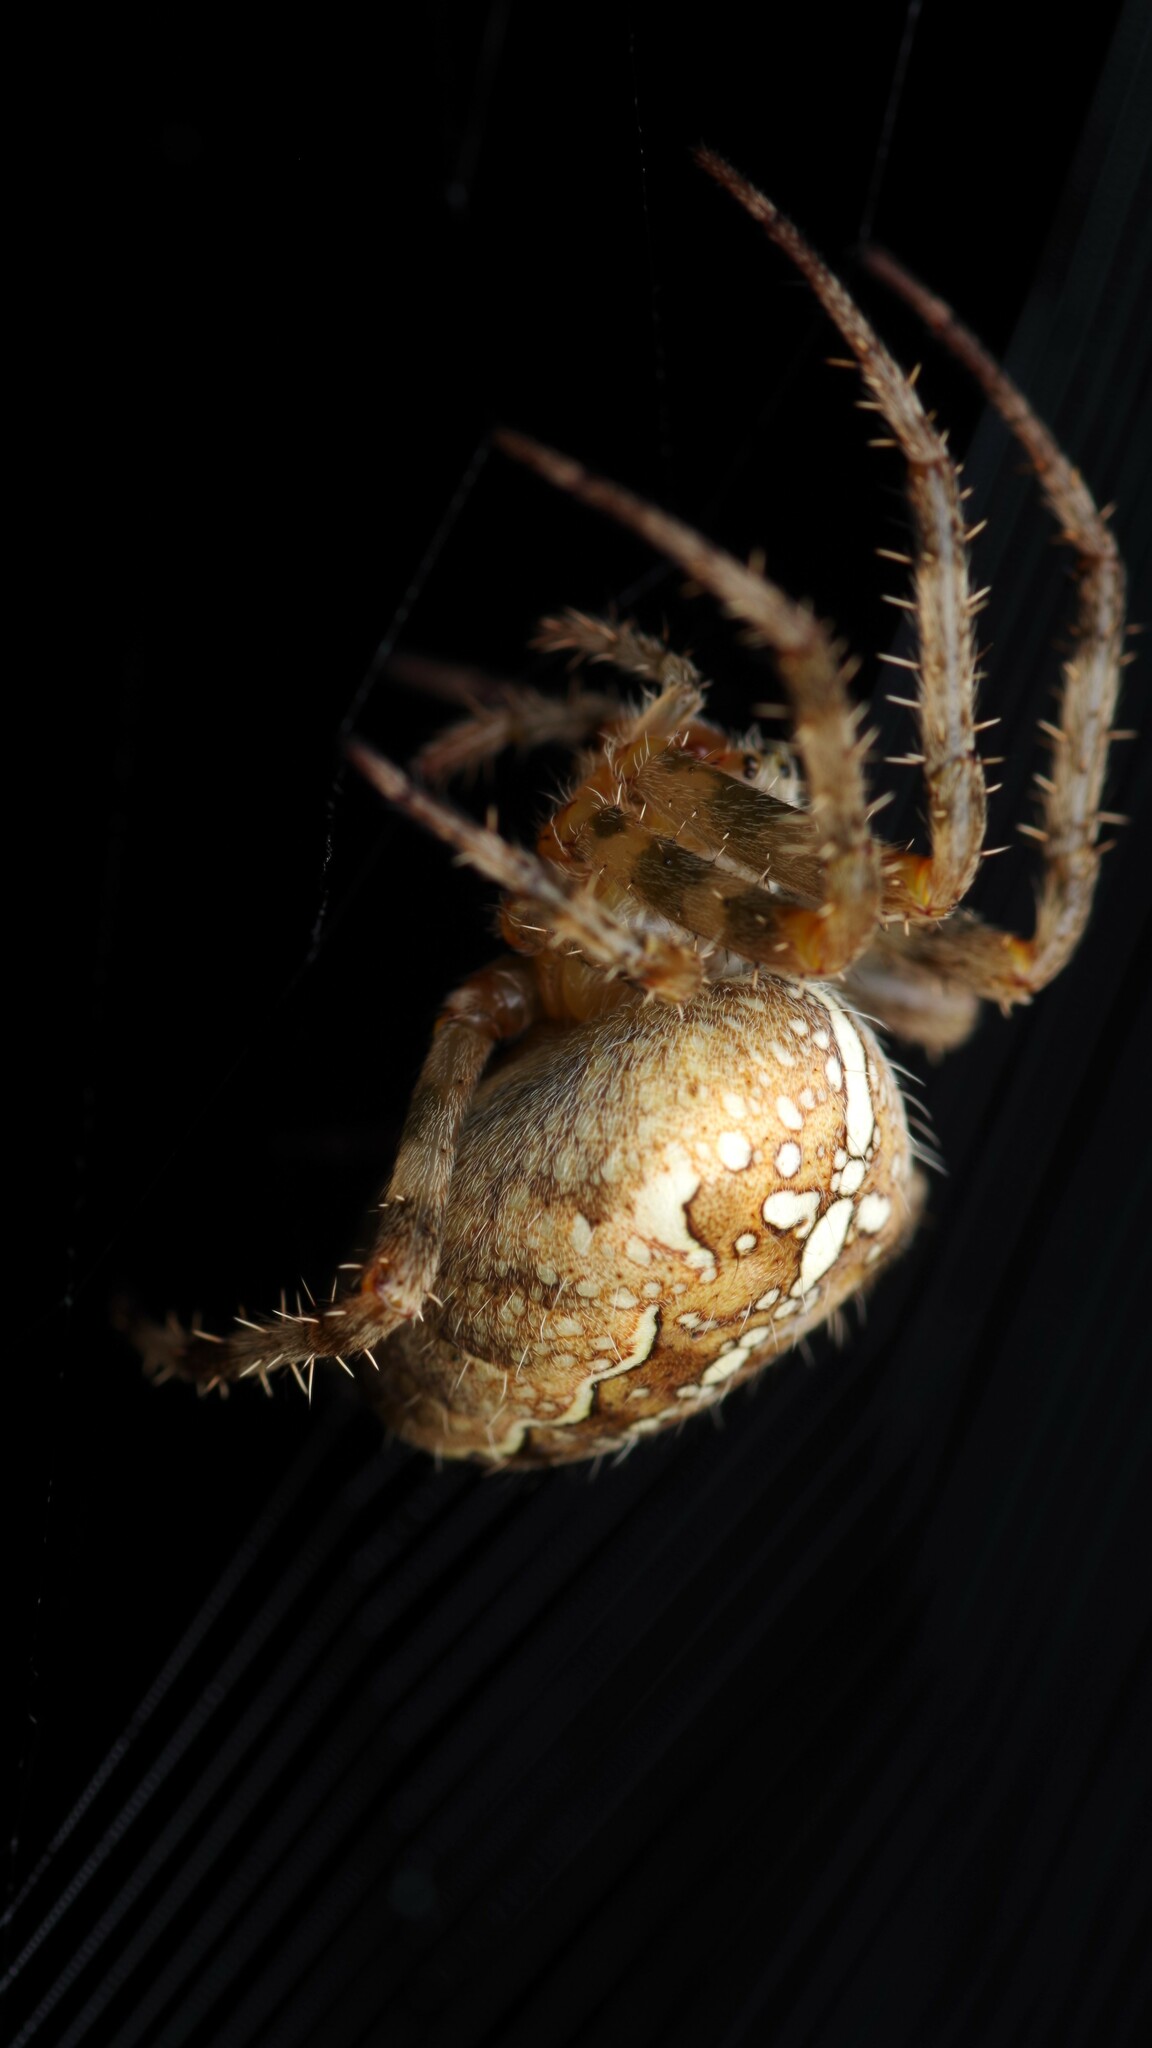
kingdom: Animalia
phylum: Arthropoda
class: Arachnida
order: Araneae
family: Araneidae
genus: Araneus
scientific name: Araneus diadematus
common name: Cross orbweaver
